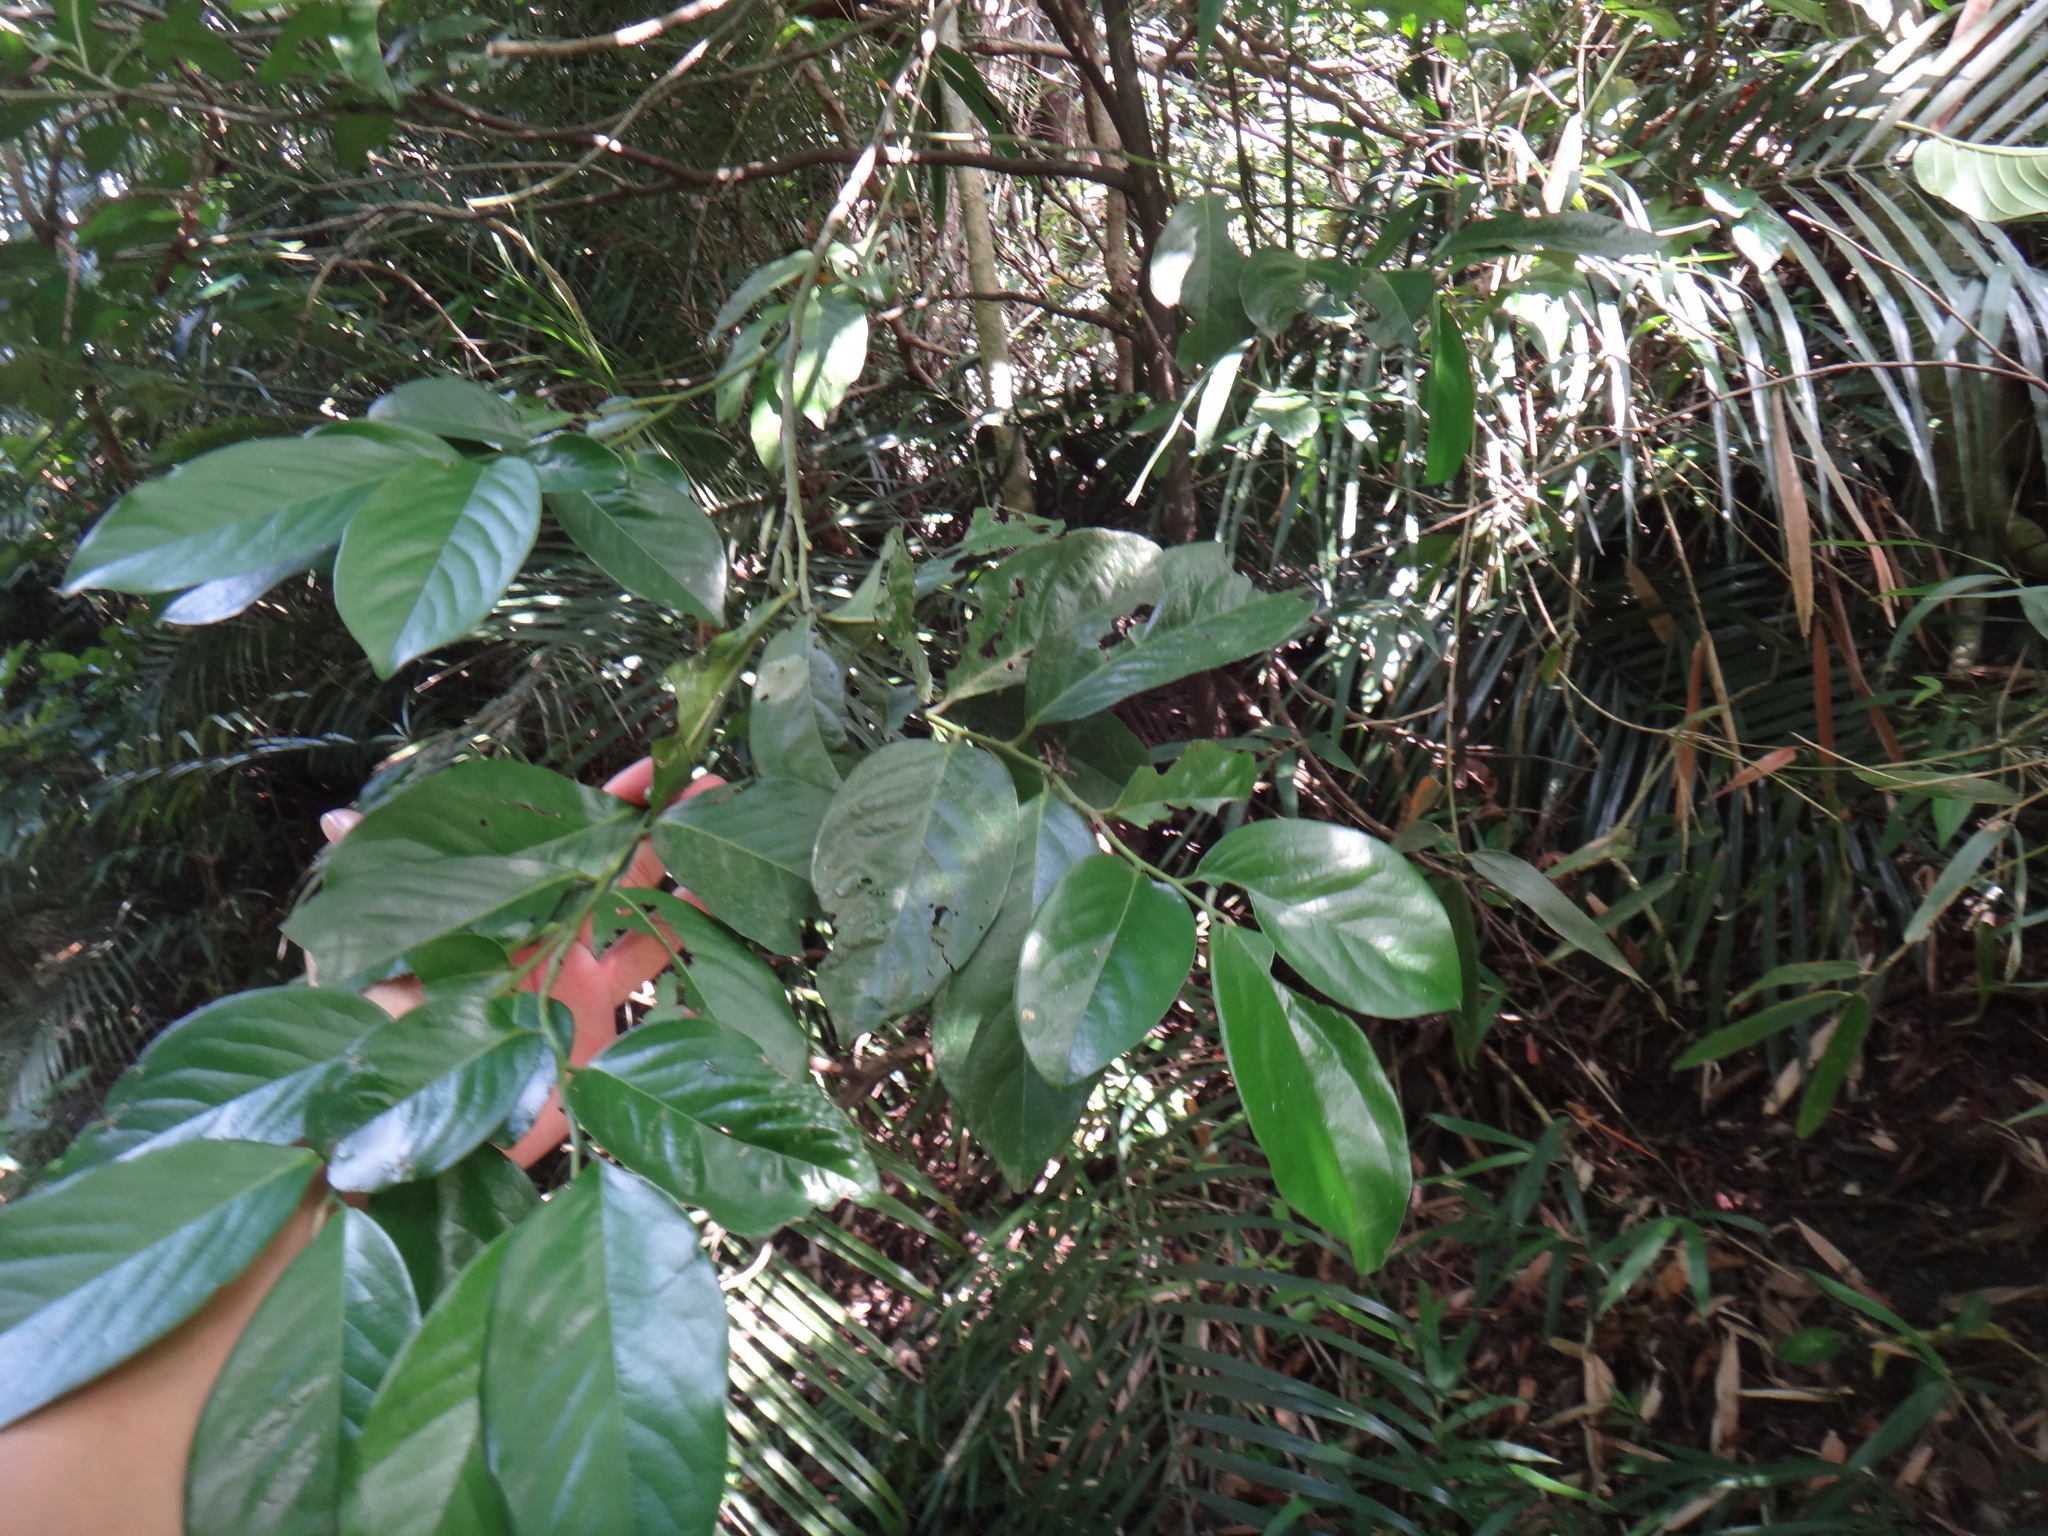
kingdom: Plantae
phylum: Tracheophyta
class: Magnoliopsida
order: Ericales
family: Ebenaceae
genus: Diospyros
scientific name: Diospyros maritima
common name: Malaysian persimmon
